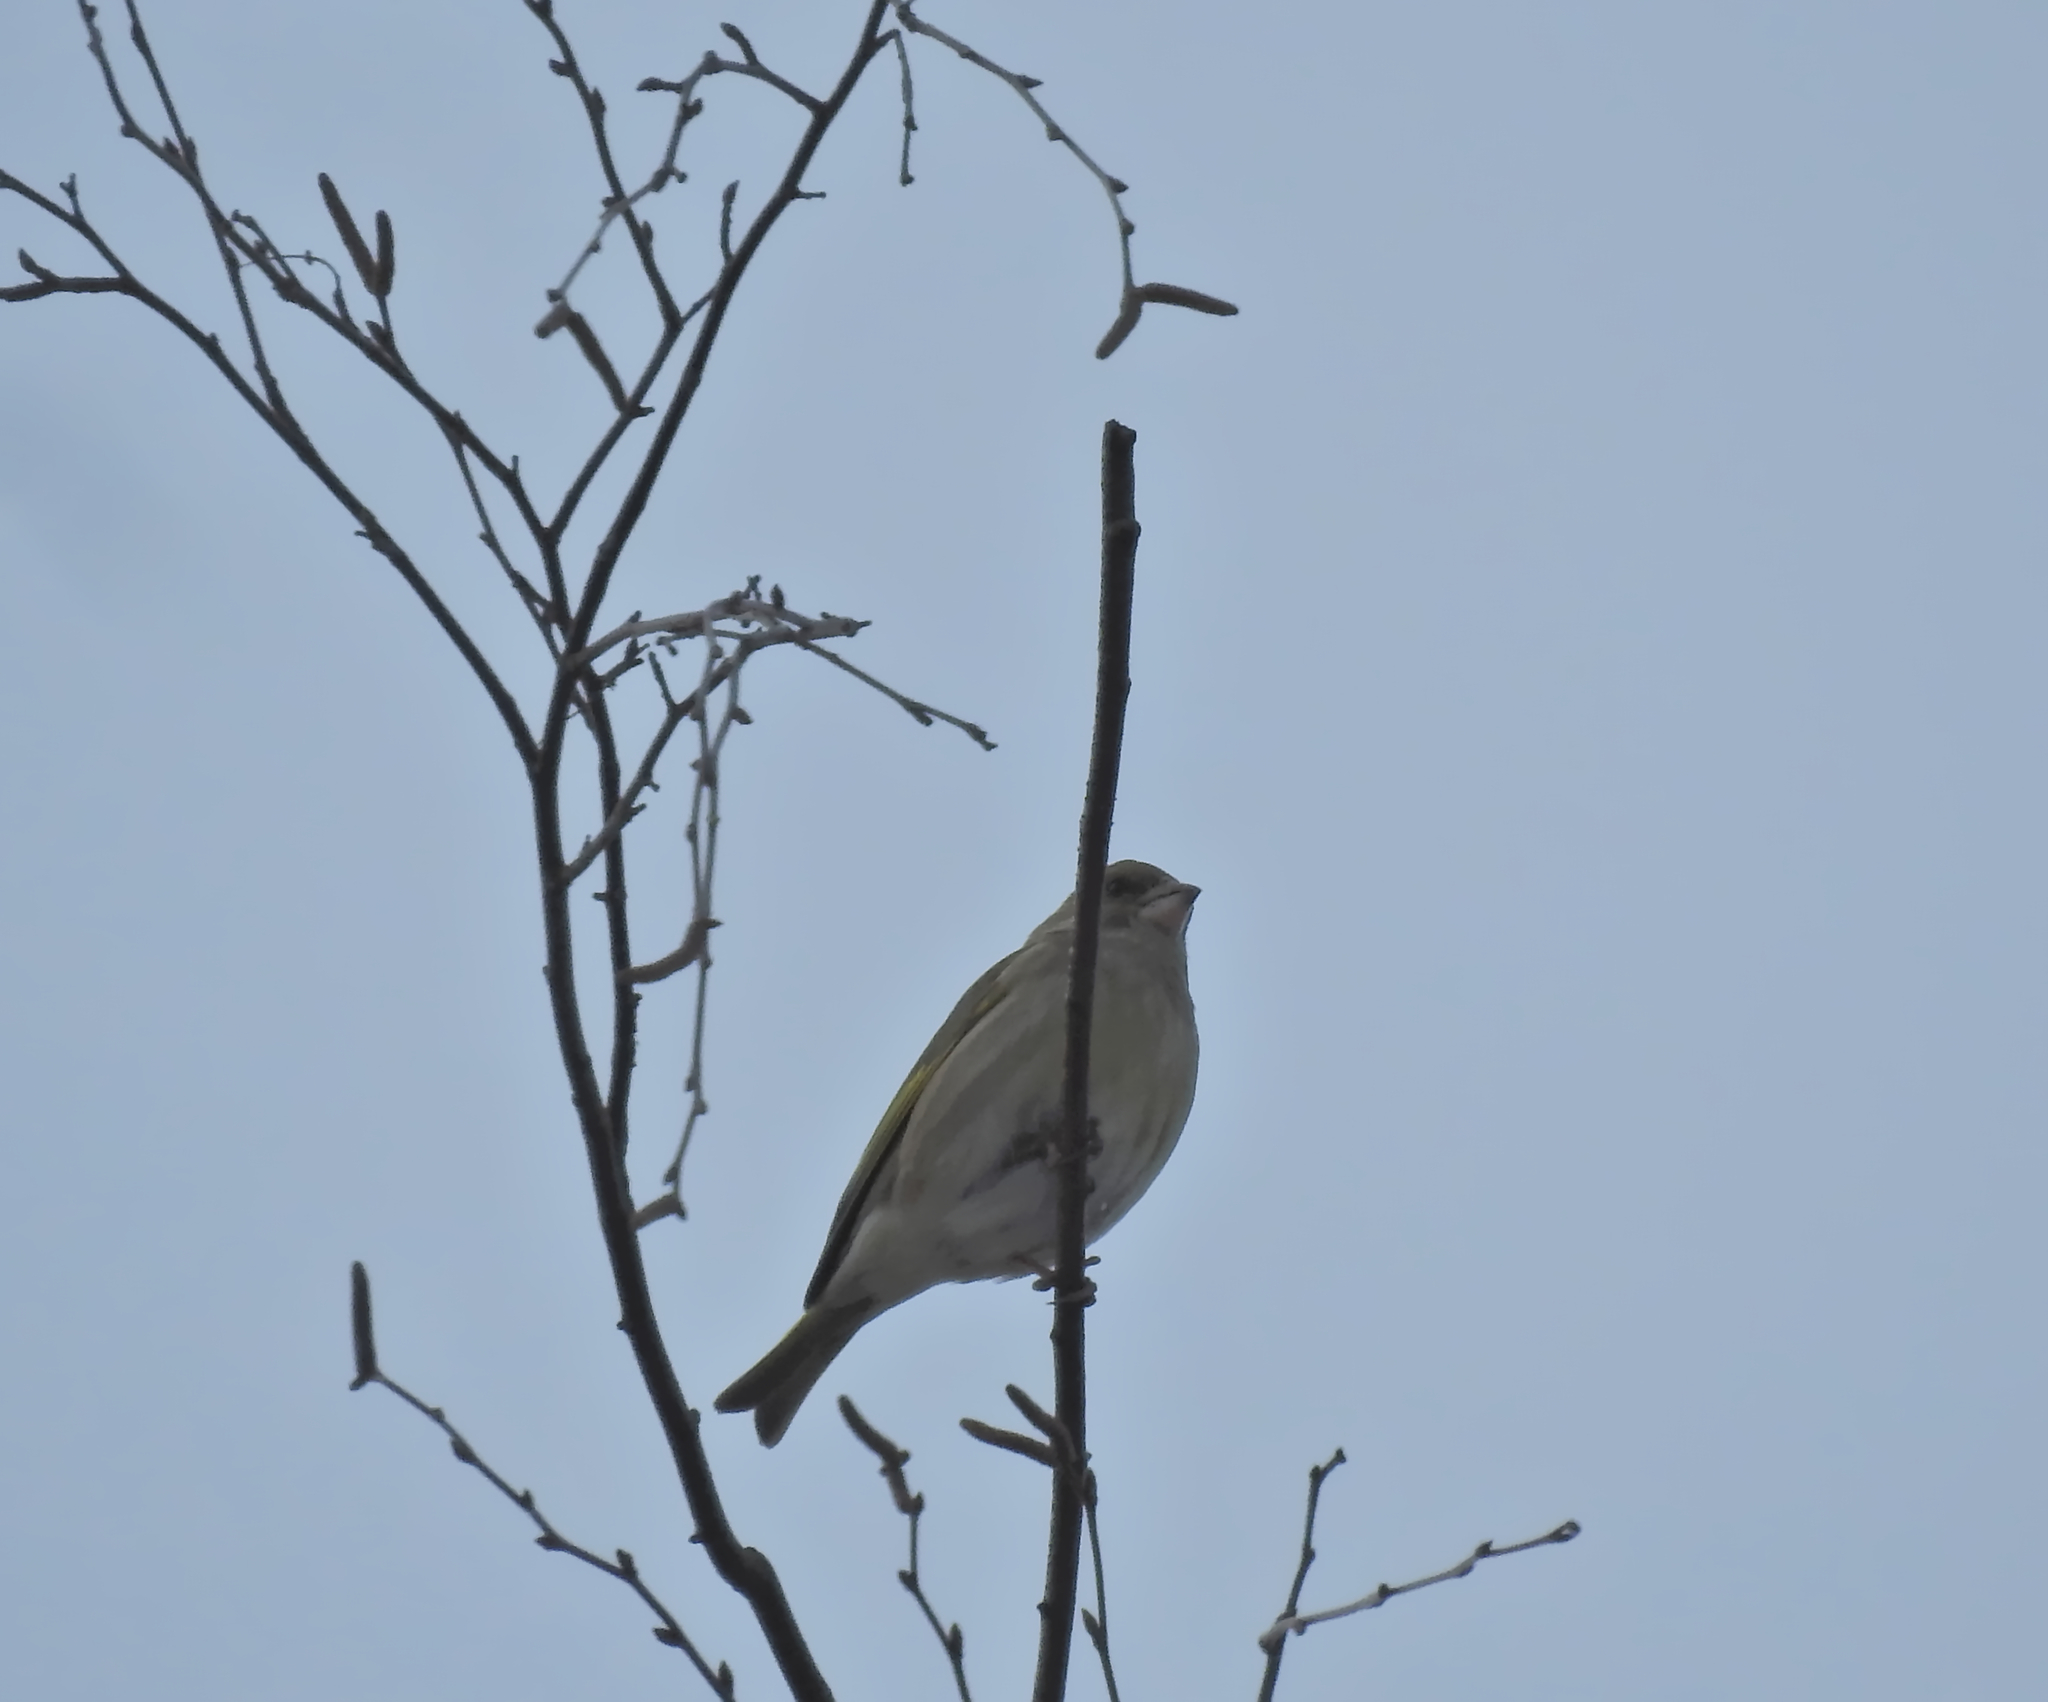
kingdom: Plantae
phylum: Tracheophyta
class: Liliopsida
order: Poales
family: Poaceae
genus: Chloris
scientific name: Chloris chloris
